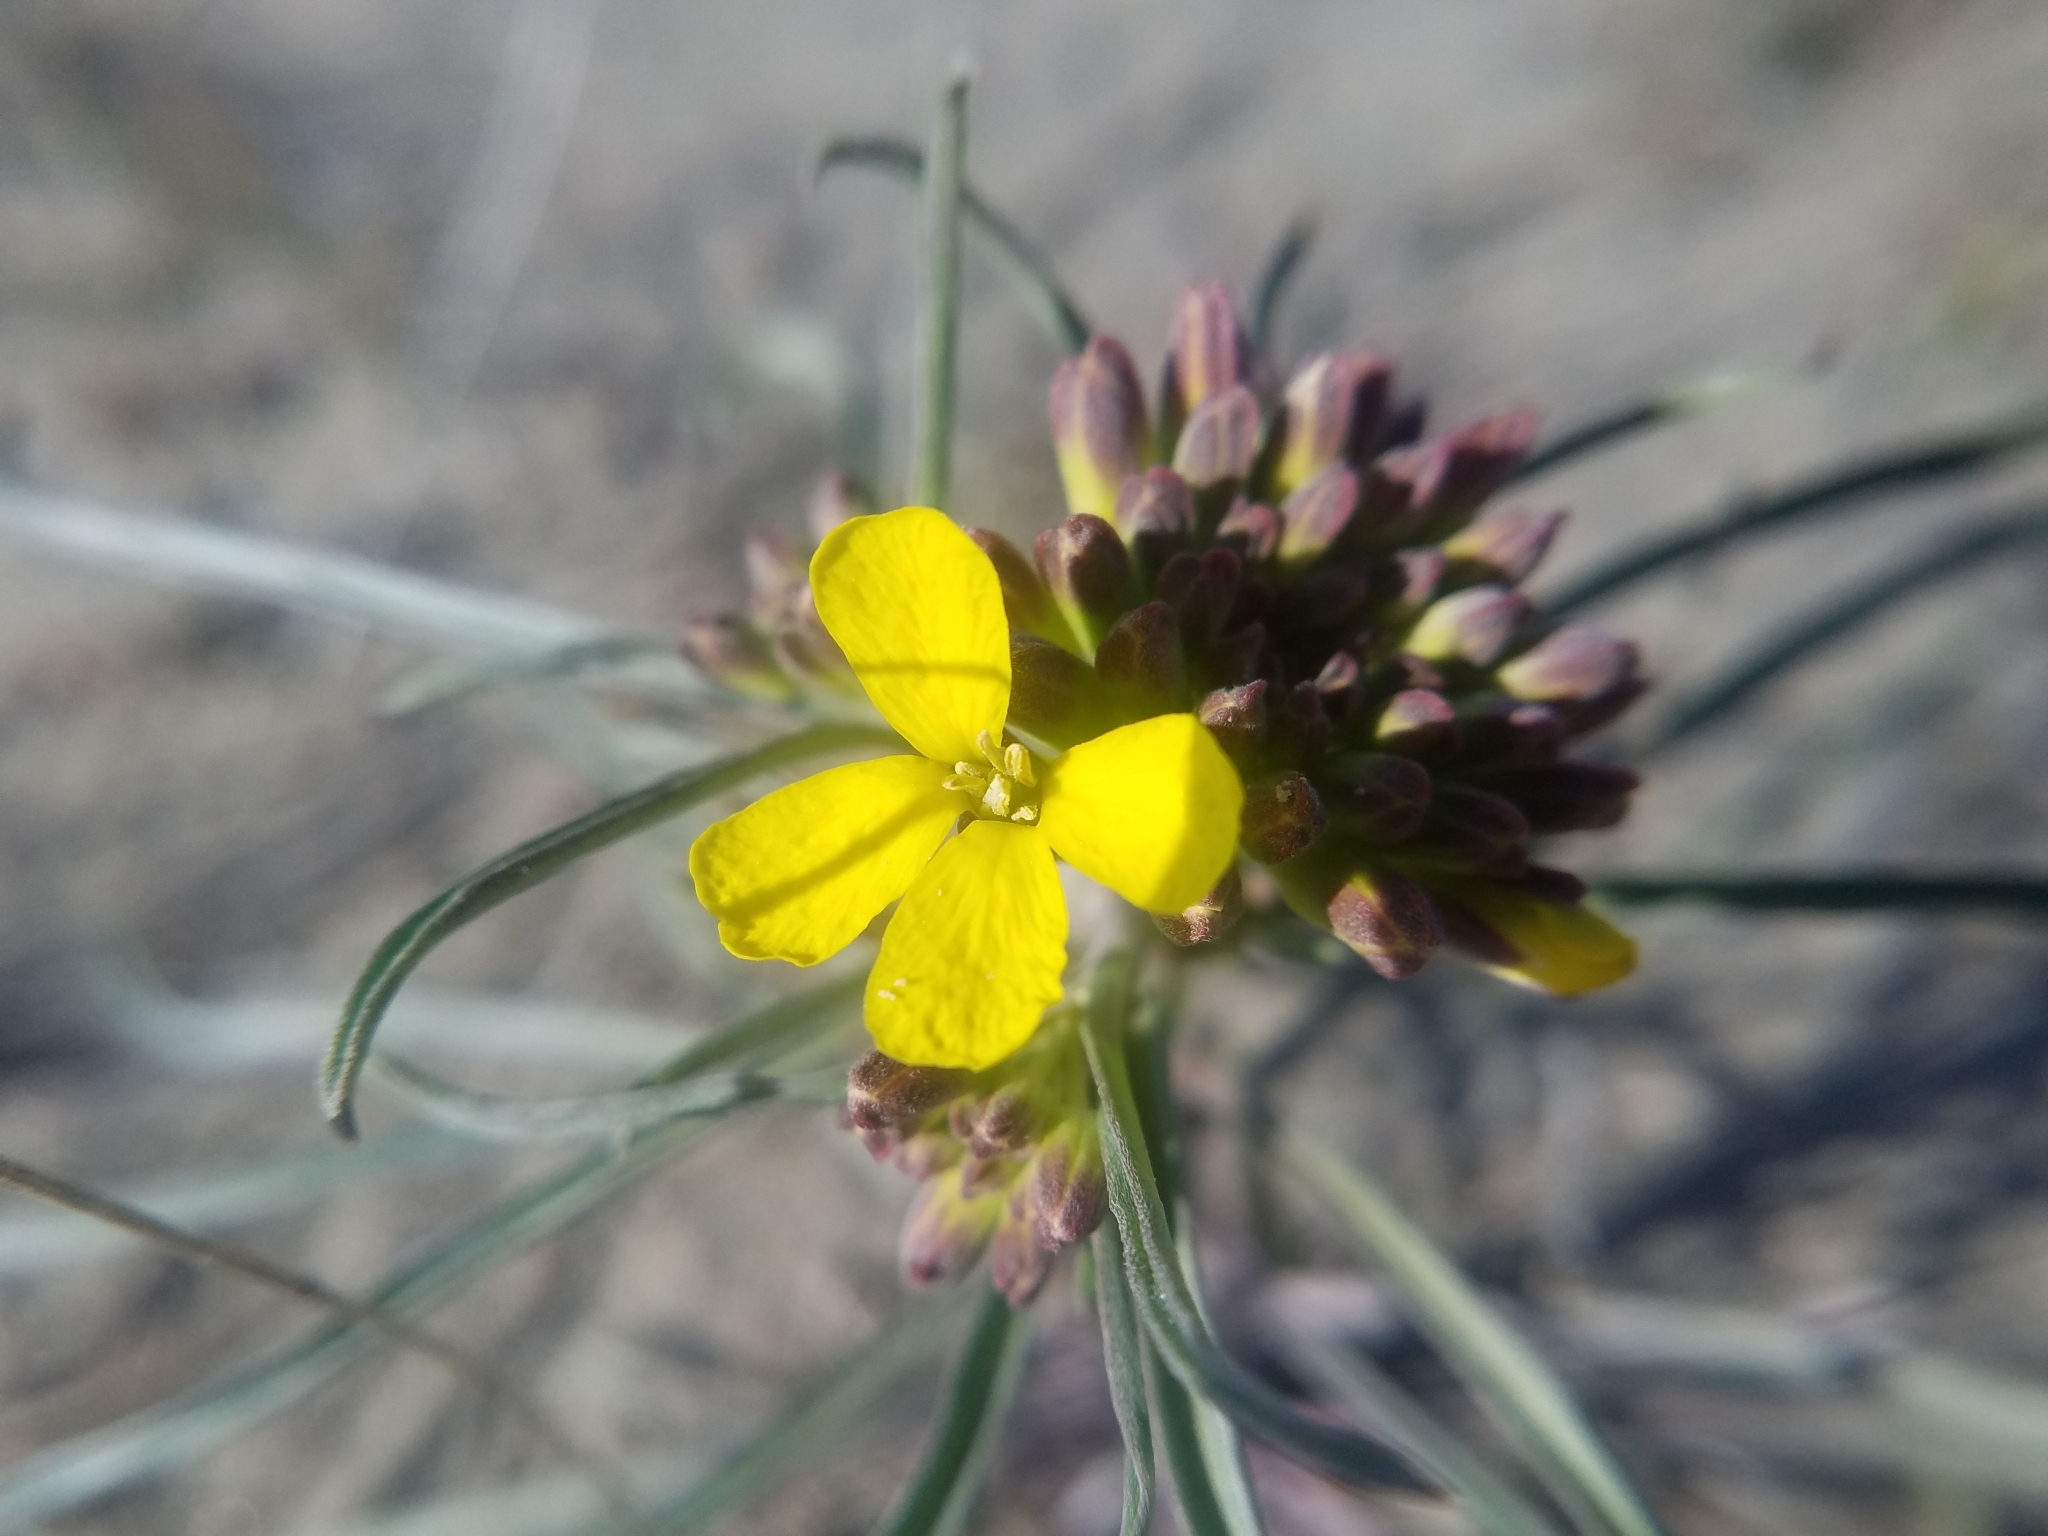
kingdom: Plantae
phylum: Tracheophyta
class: Magnoliopsida
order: Brassicales
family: Brassicaceae
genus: Erysimum
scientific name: Erysimum asperum
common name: Western wallflower
